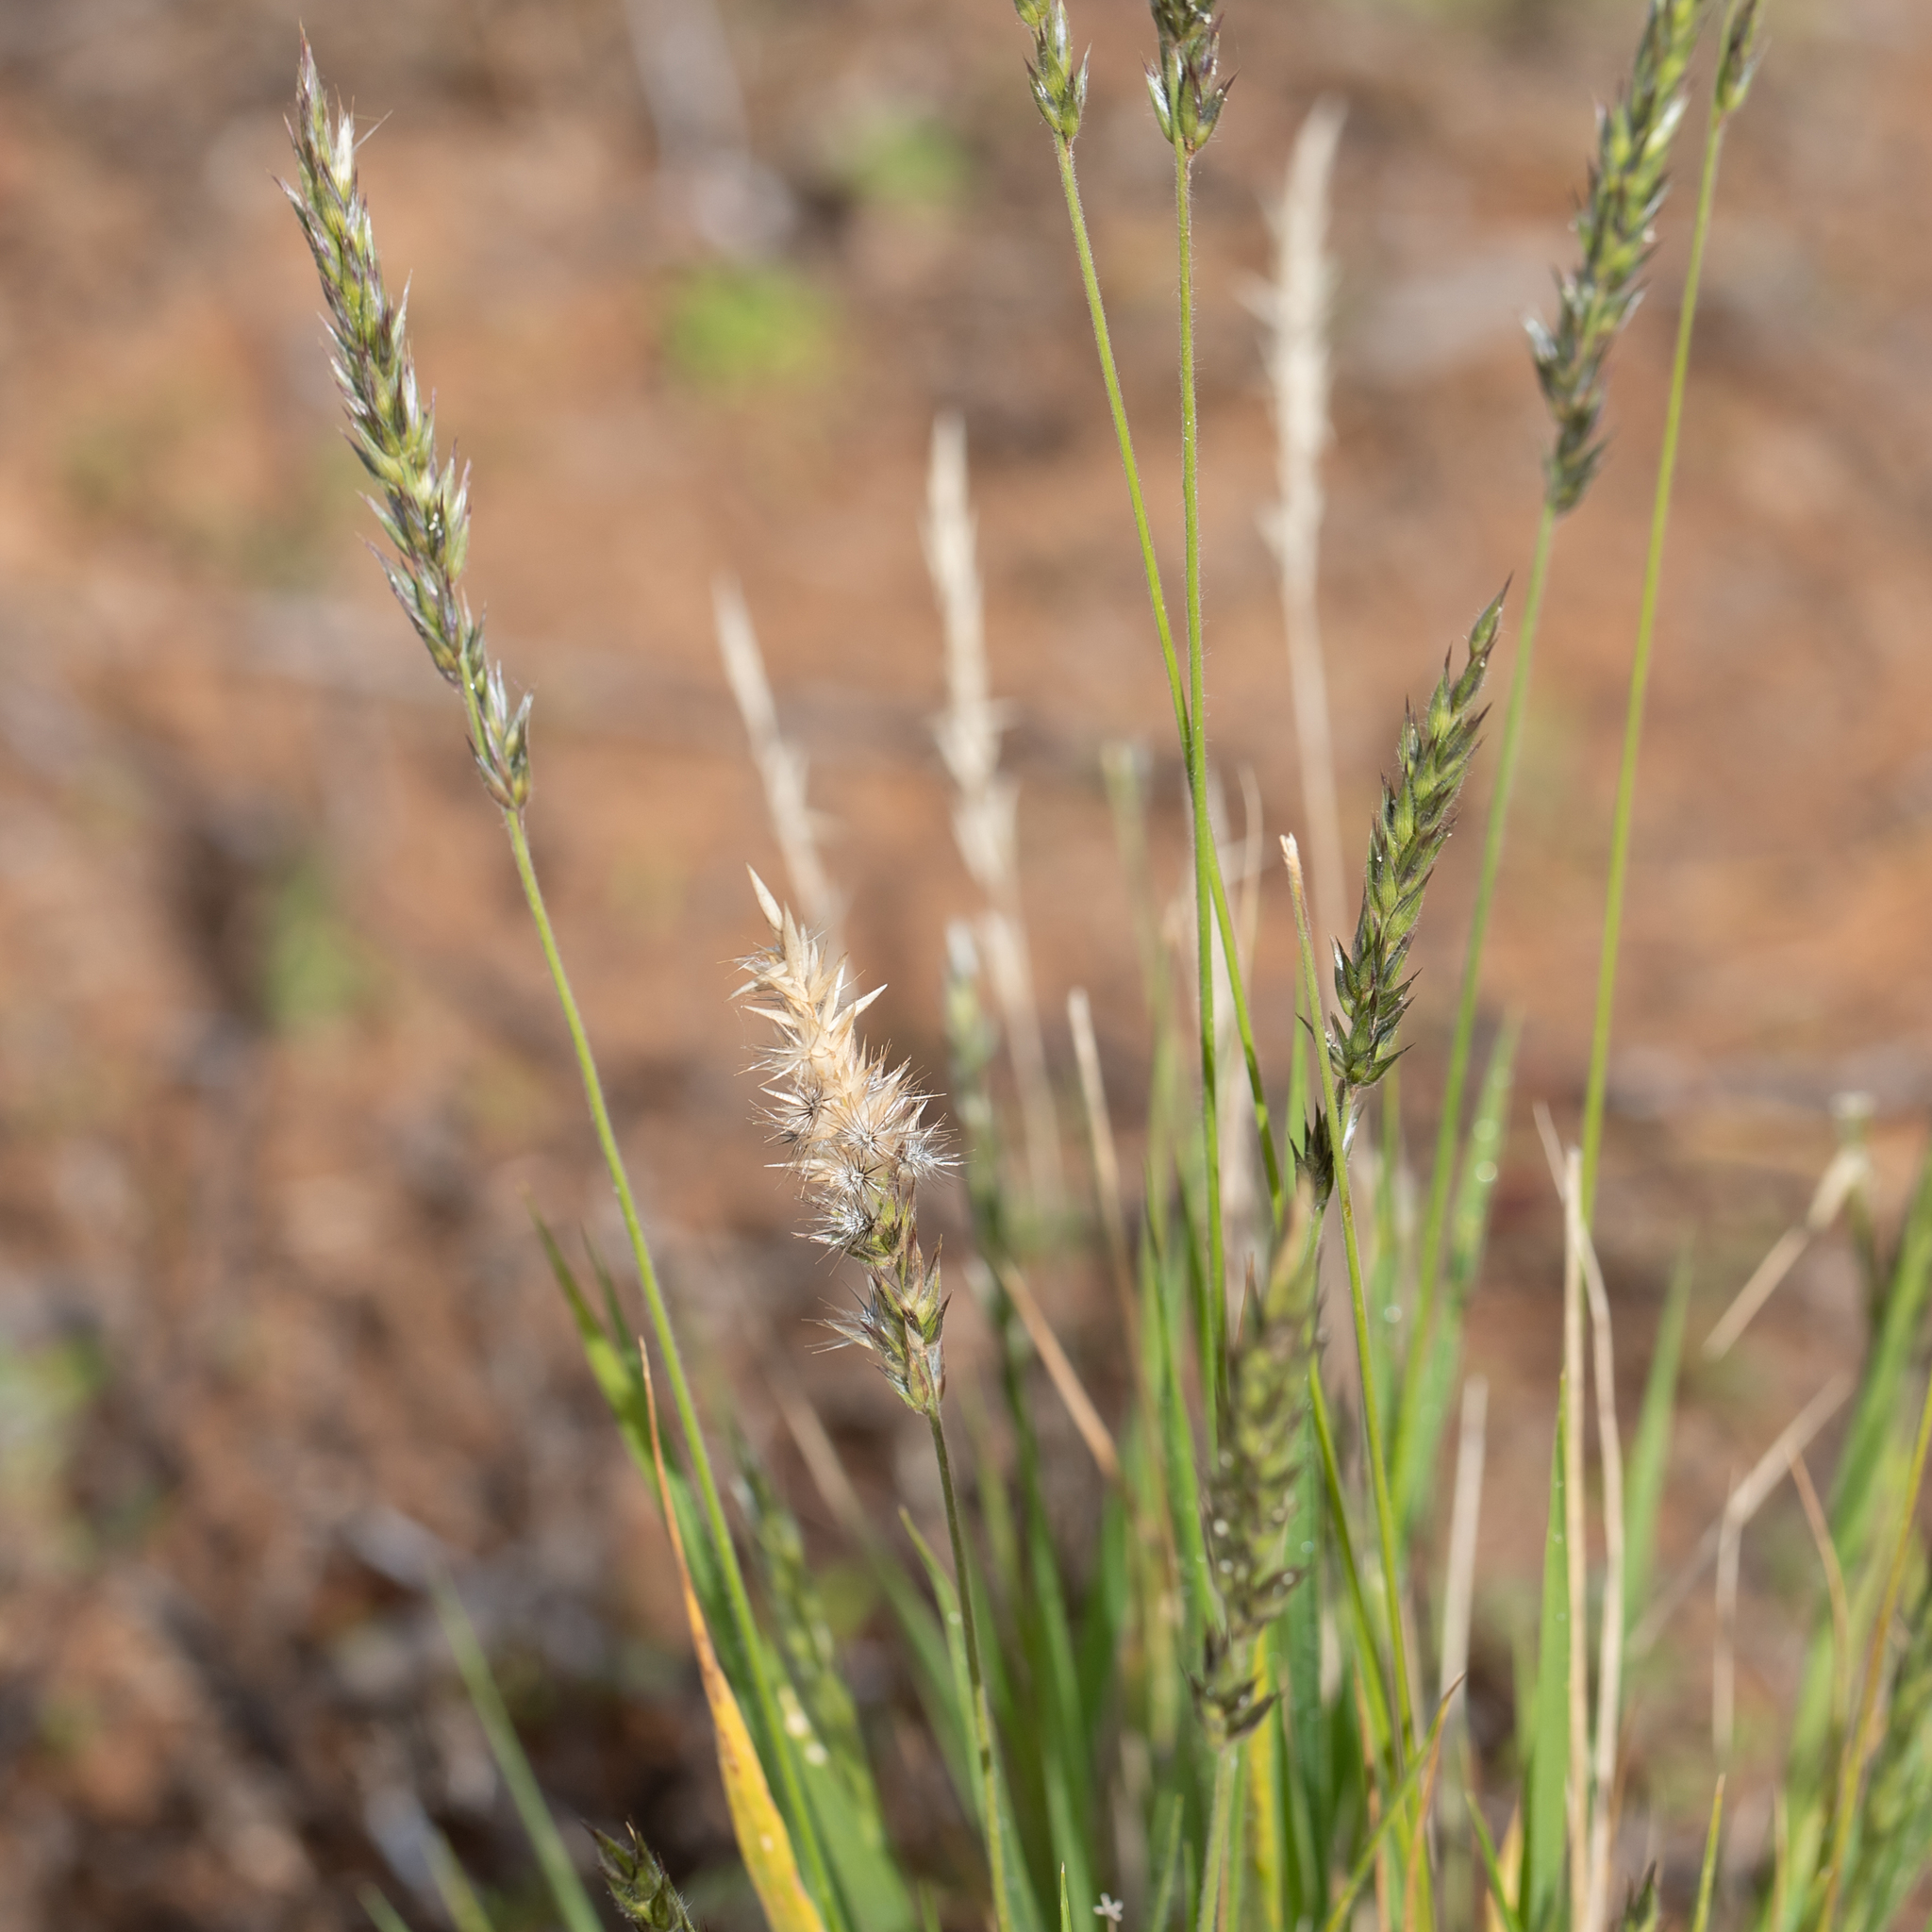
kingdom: Plantae
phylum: Tracheophyta
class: Liliopsida
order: Poales
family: Poaceae
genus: Enneapogon
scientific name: Enneapogon polyphyllus
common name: Leafy nineawn
